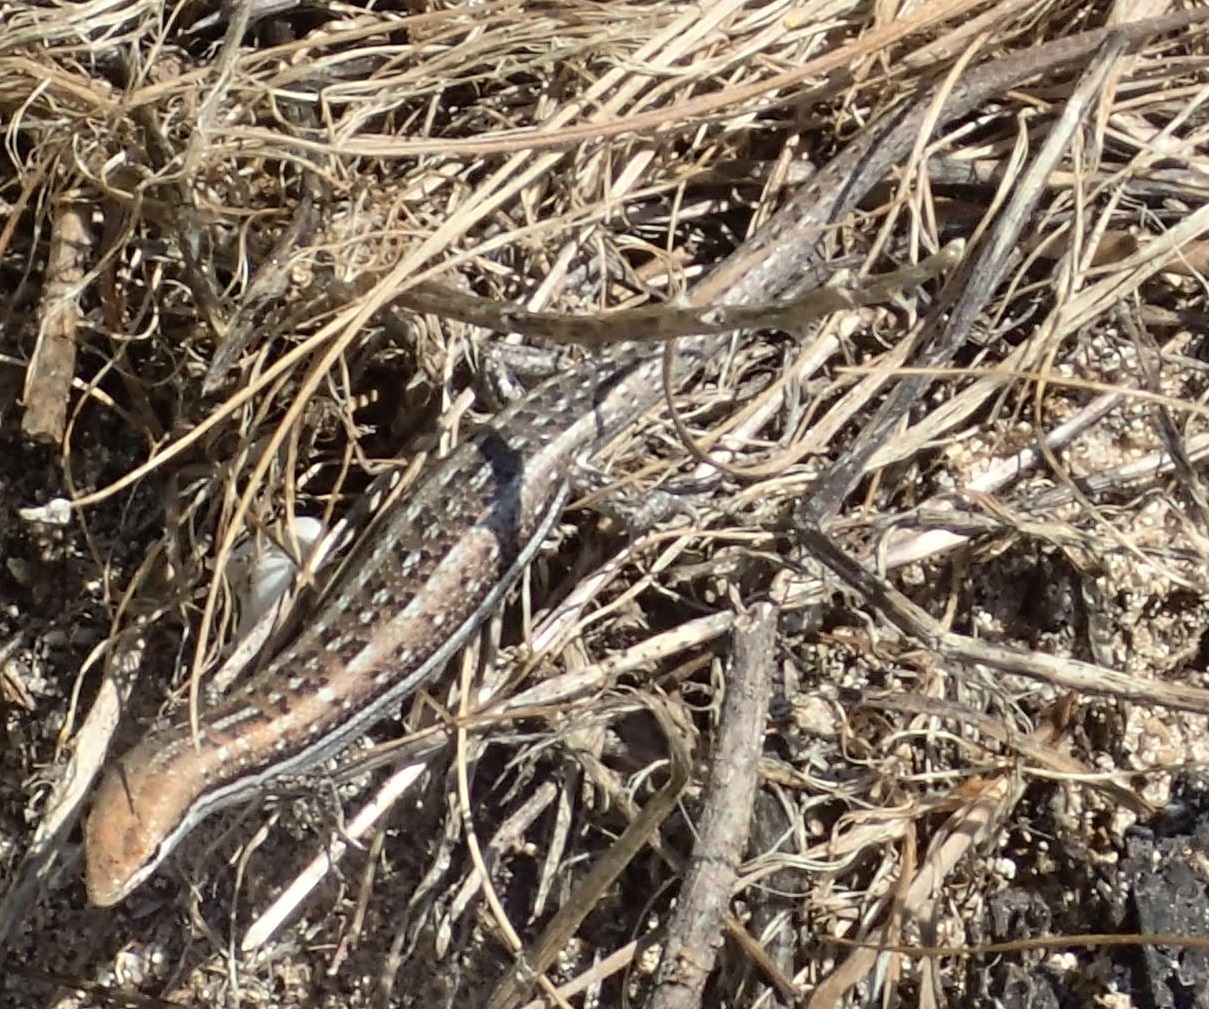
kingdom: Animalia
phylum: Chordata
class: Squamata
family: Scincidae
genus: Morethia
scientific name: Morethia lineoocellata
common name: West coast morethia skink
